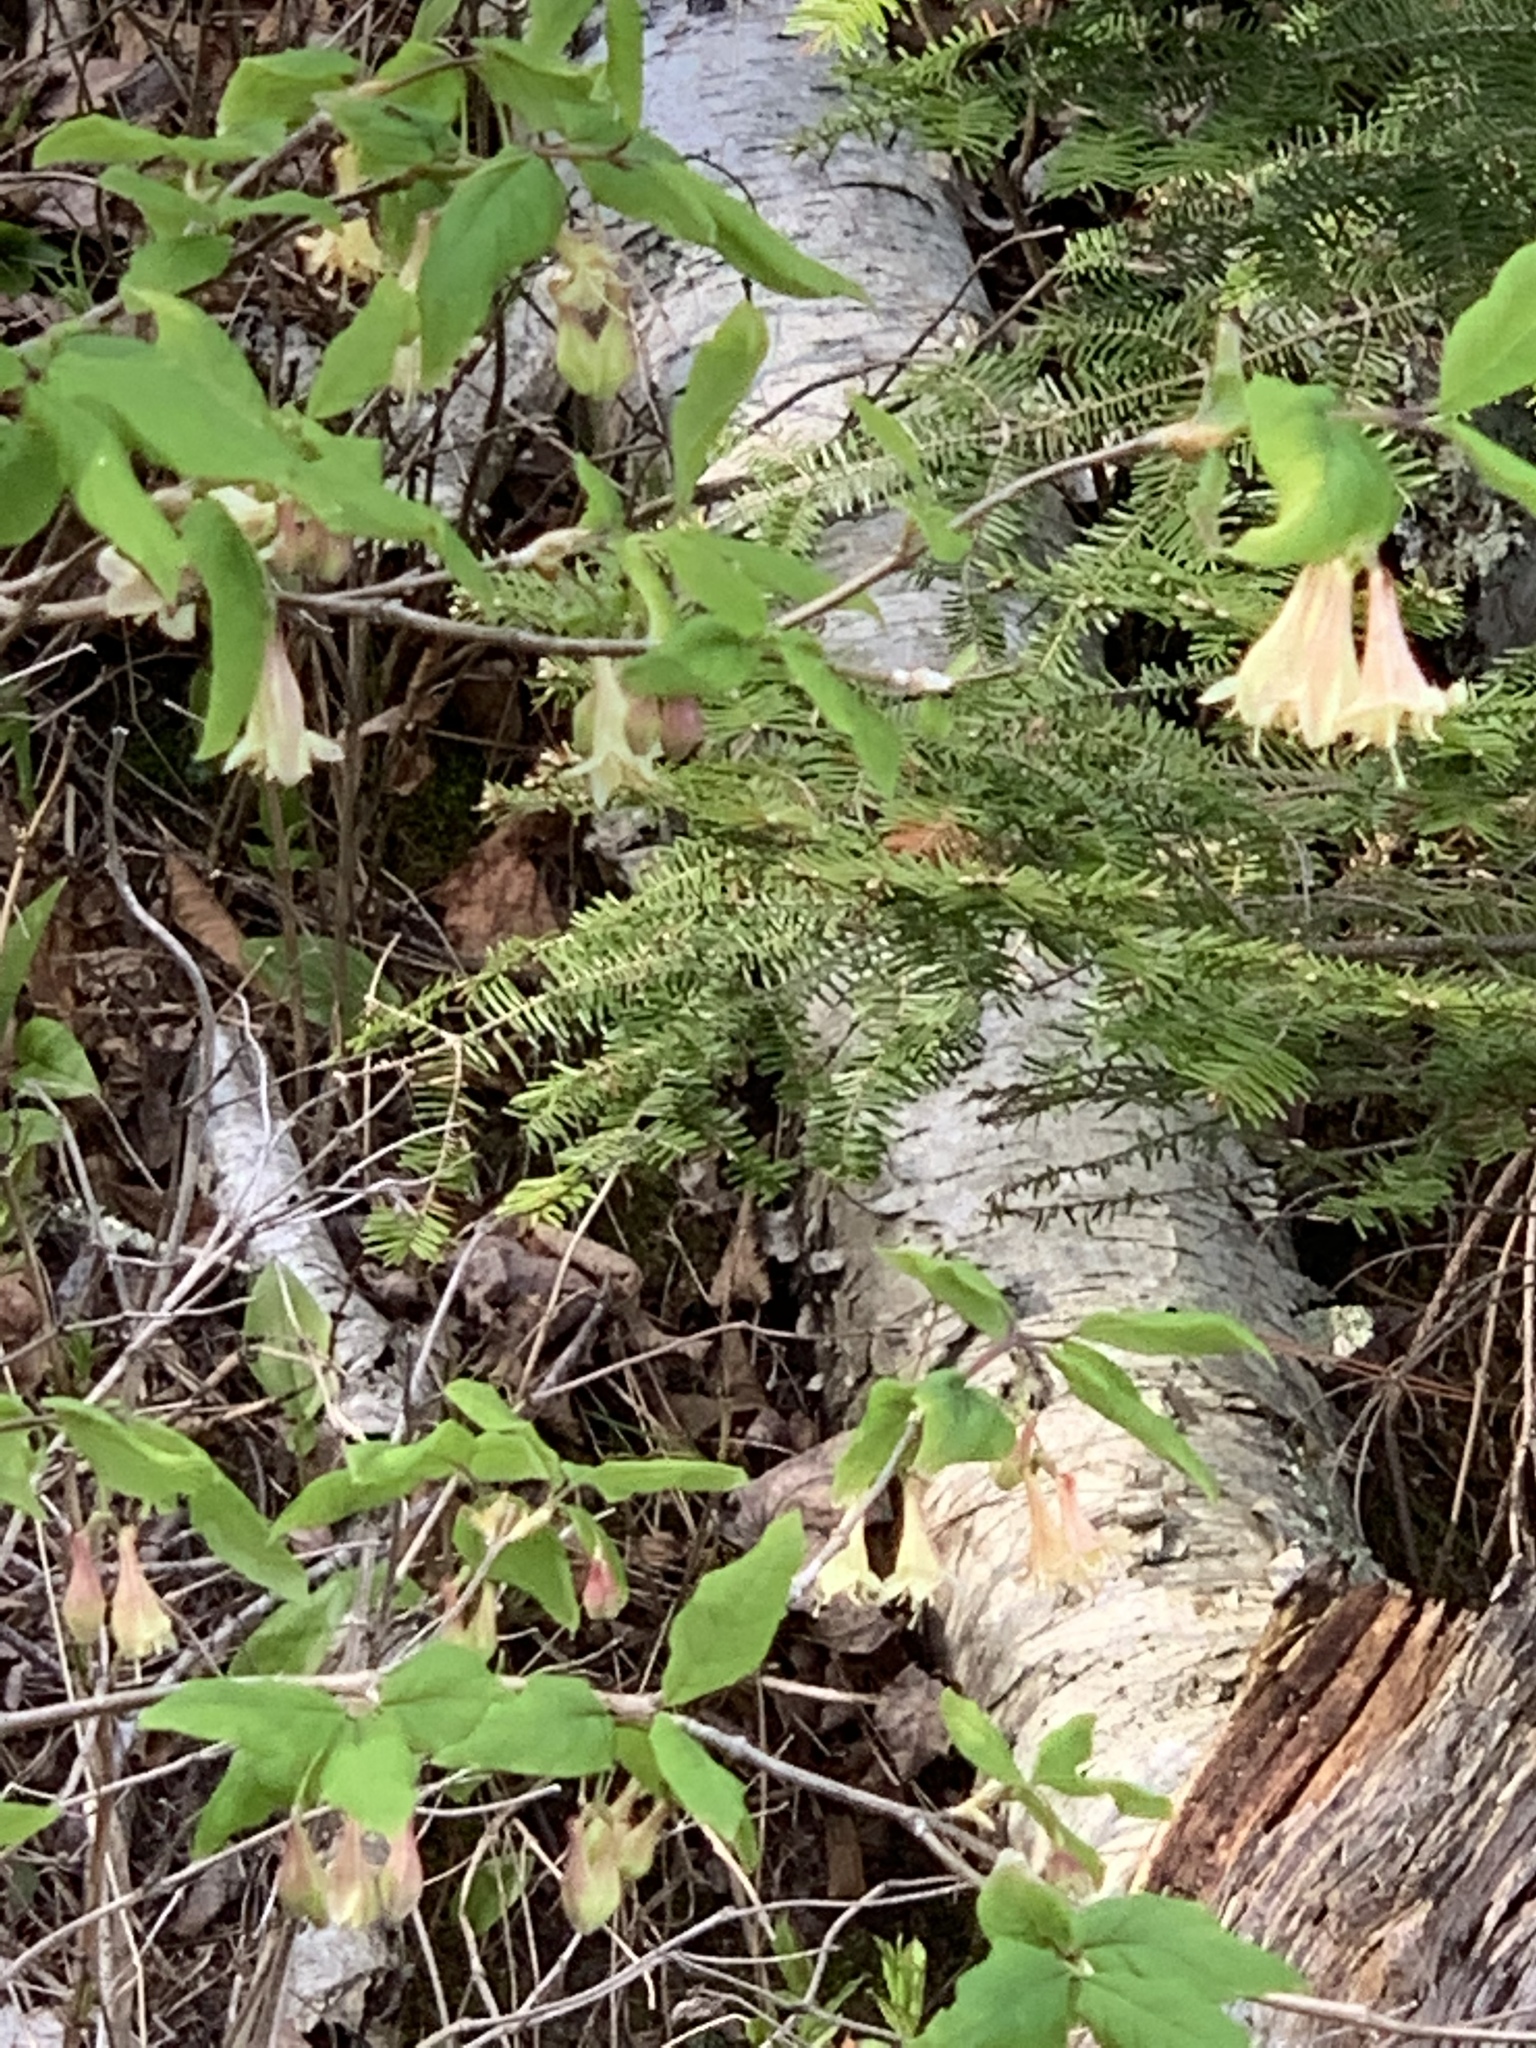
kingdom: Plantae
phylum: Tracheophyta
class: Magnoliopsida
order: Dipsacales
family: Caprifoliaceae
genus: Lonicera
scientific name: Lonicera canadensis
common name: American fly-honeysuckle
